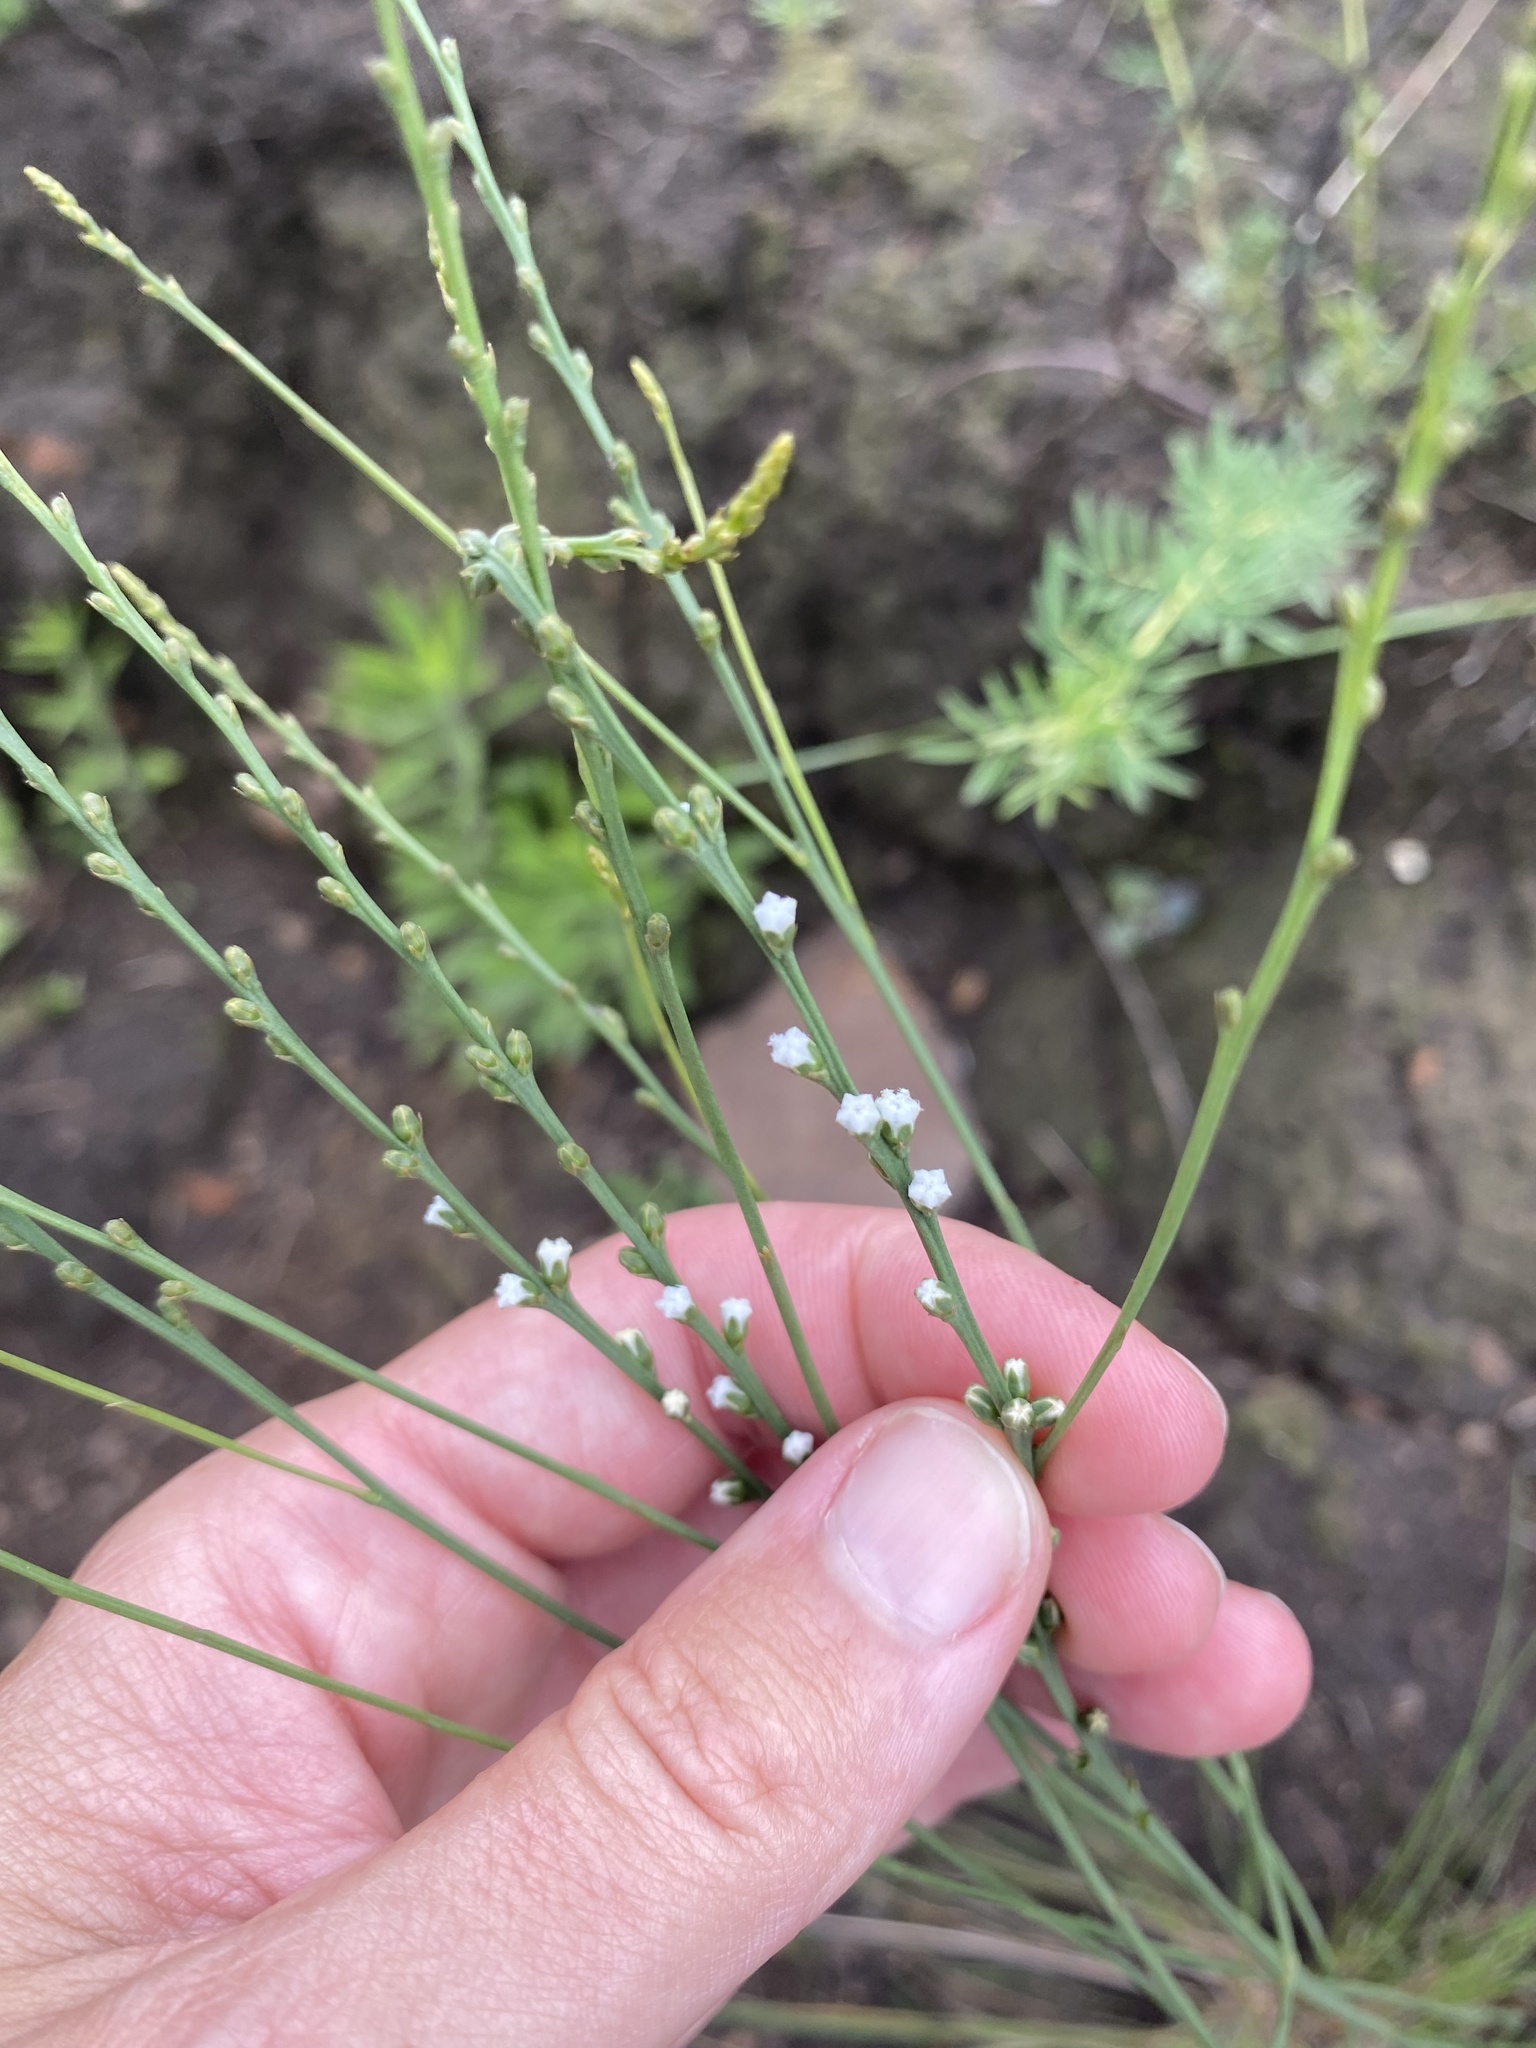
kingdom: Plantae
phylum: Tracheophyta
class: Magnoliopsida
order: Santalales
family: Thesiaceae
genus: Thesium
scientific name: Thesium natalense
